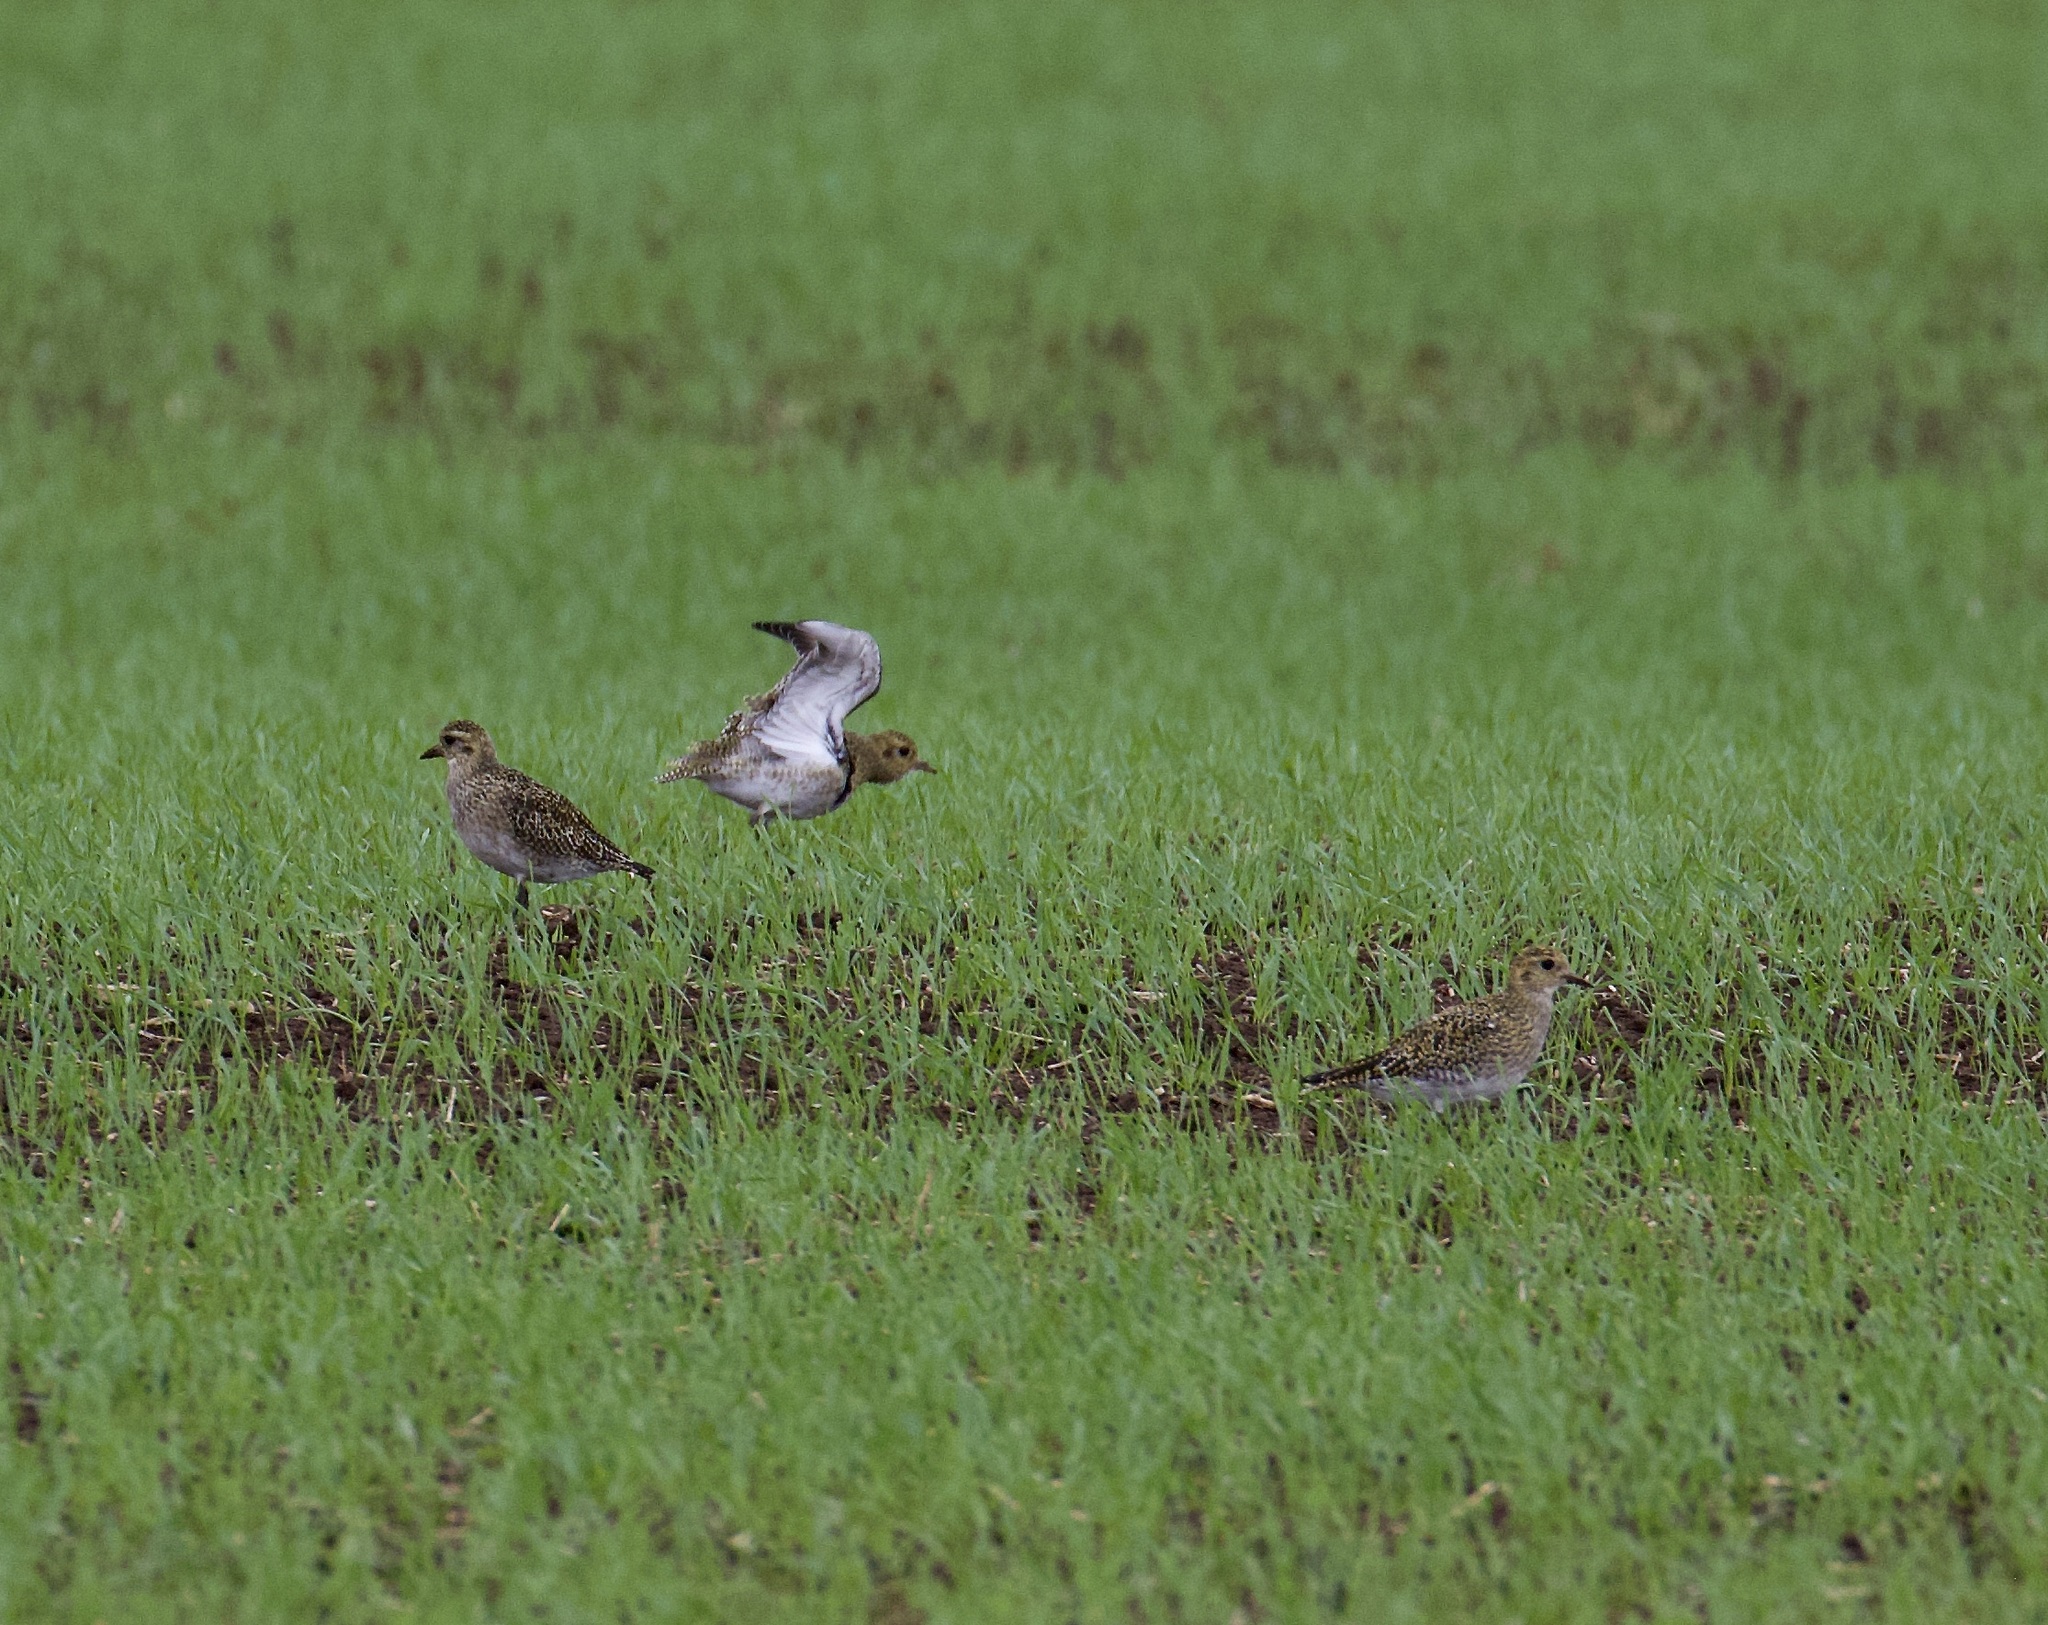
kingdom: Animalia
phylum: Chordata
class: Aves
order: Charadriiformes
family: Charadriidae
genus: Pluvialis
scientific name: Pluvialis apricaria
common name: European golden plover
